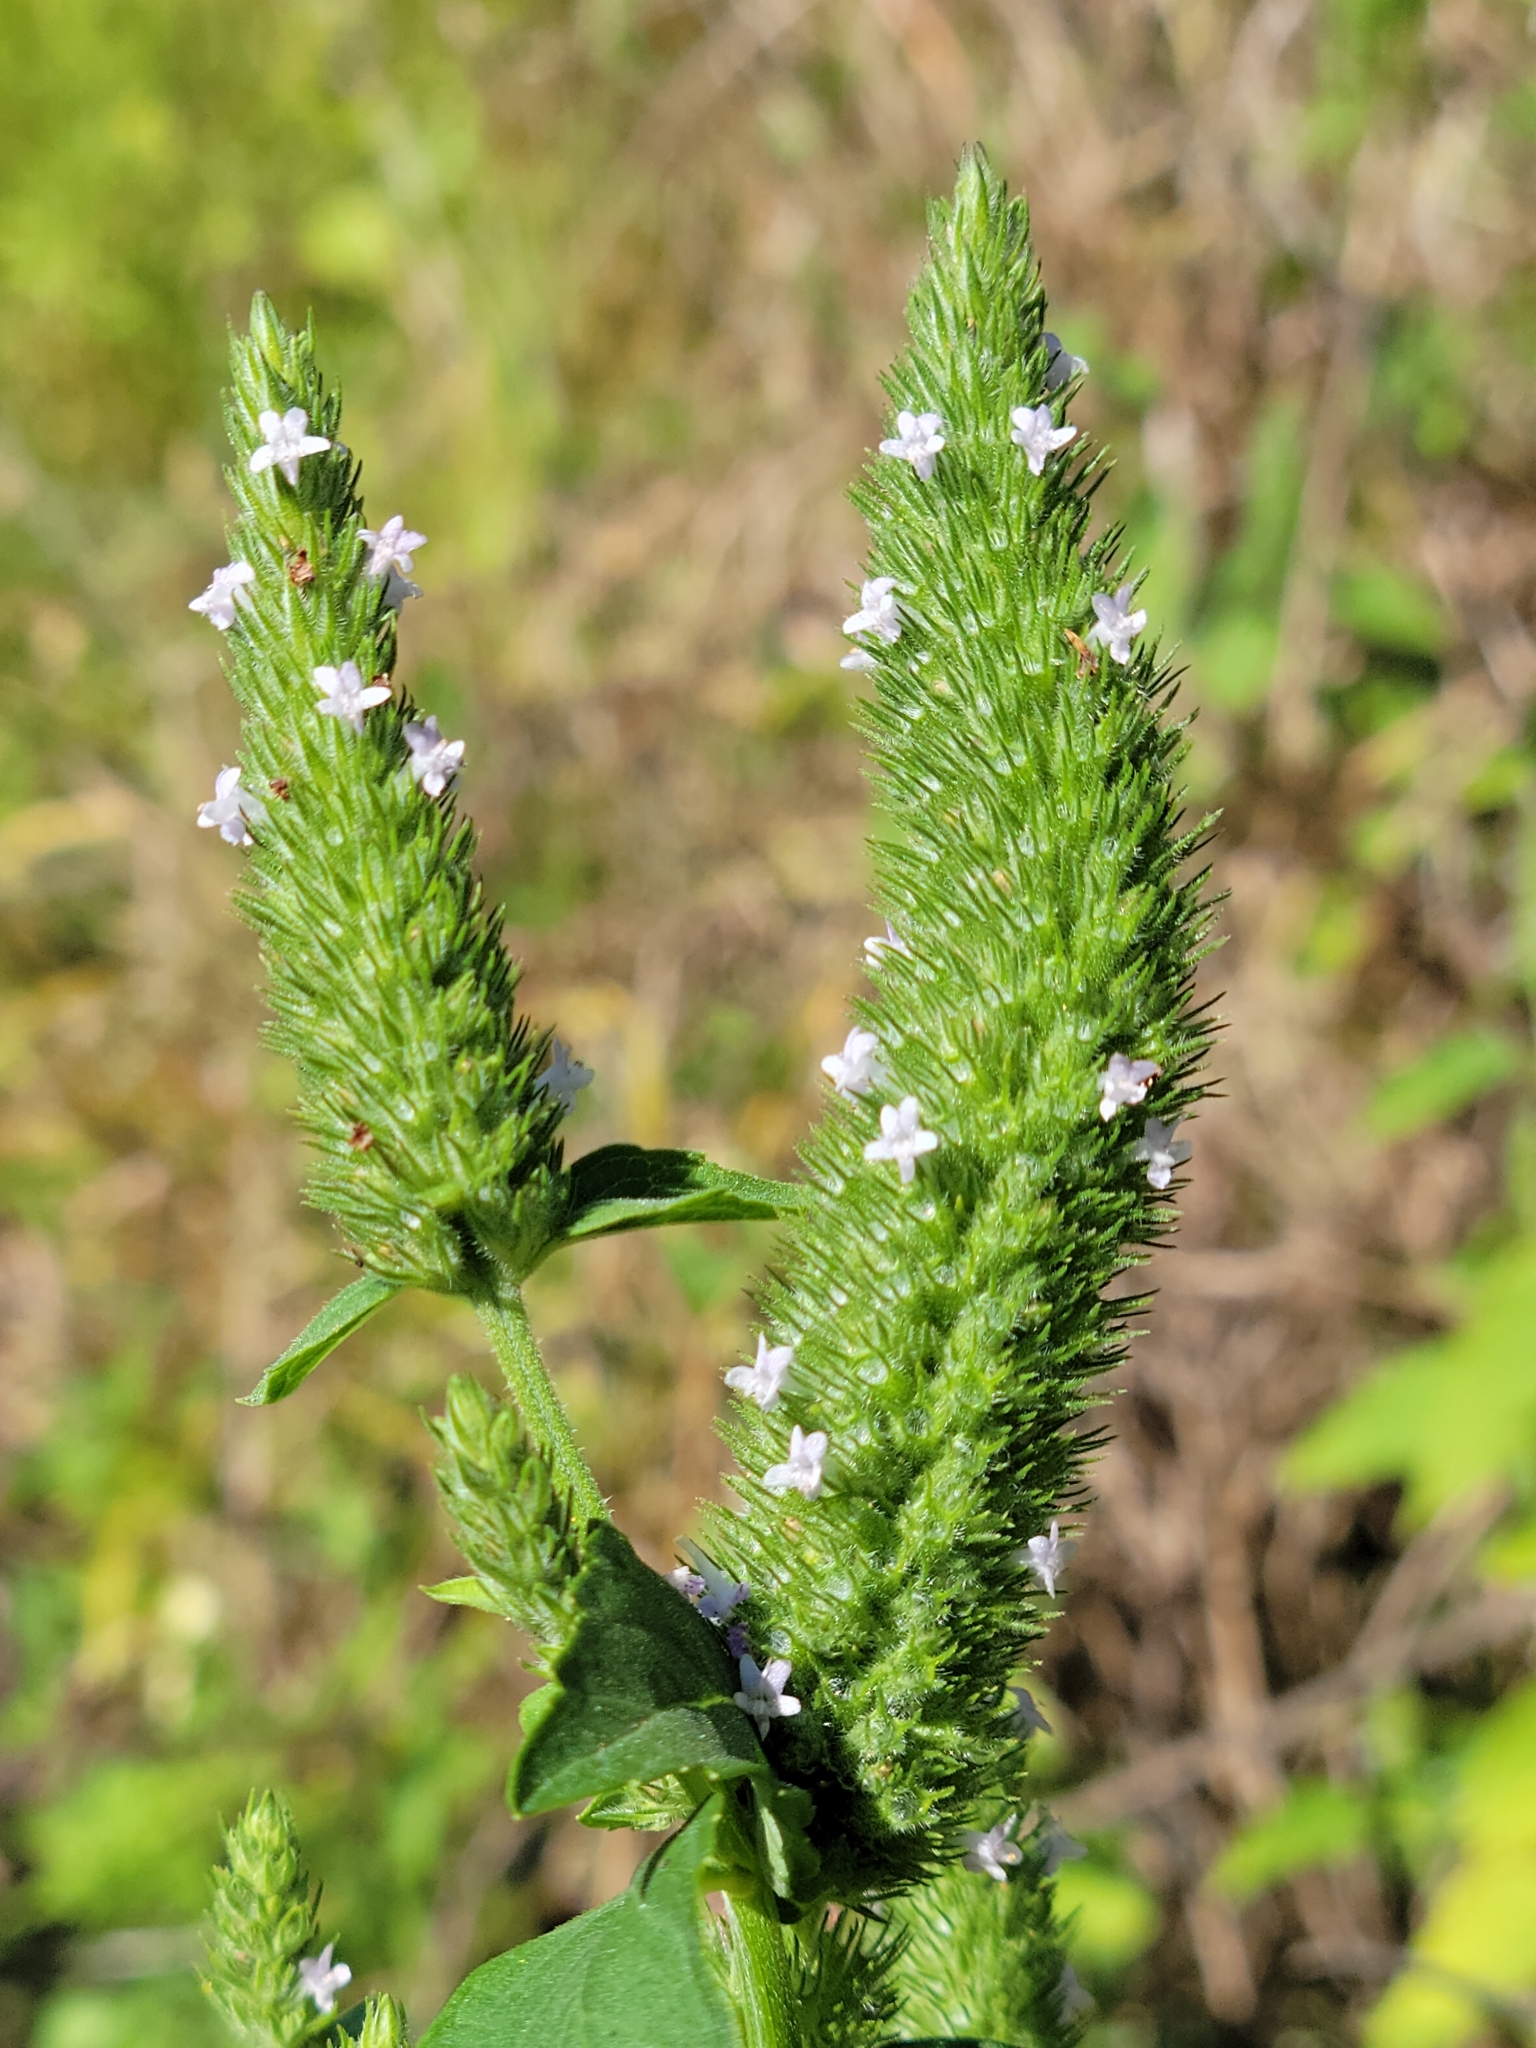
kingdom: Plantae
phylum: Tracheophyta
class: Magnoliopsida
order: Lamiales
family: Lamiaceae
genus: Cantinoa
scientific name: Cantinoa americana
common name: Black-sesame
